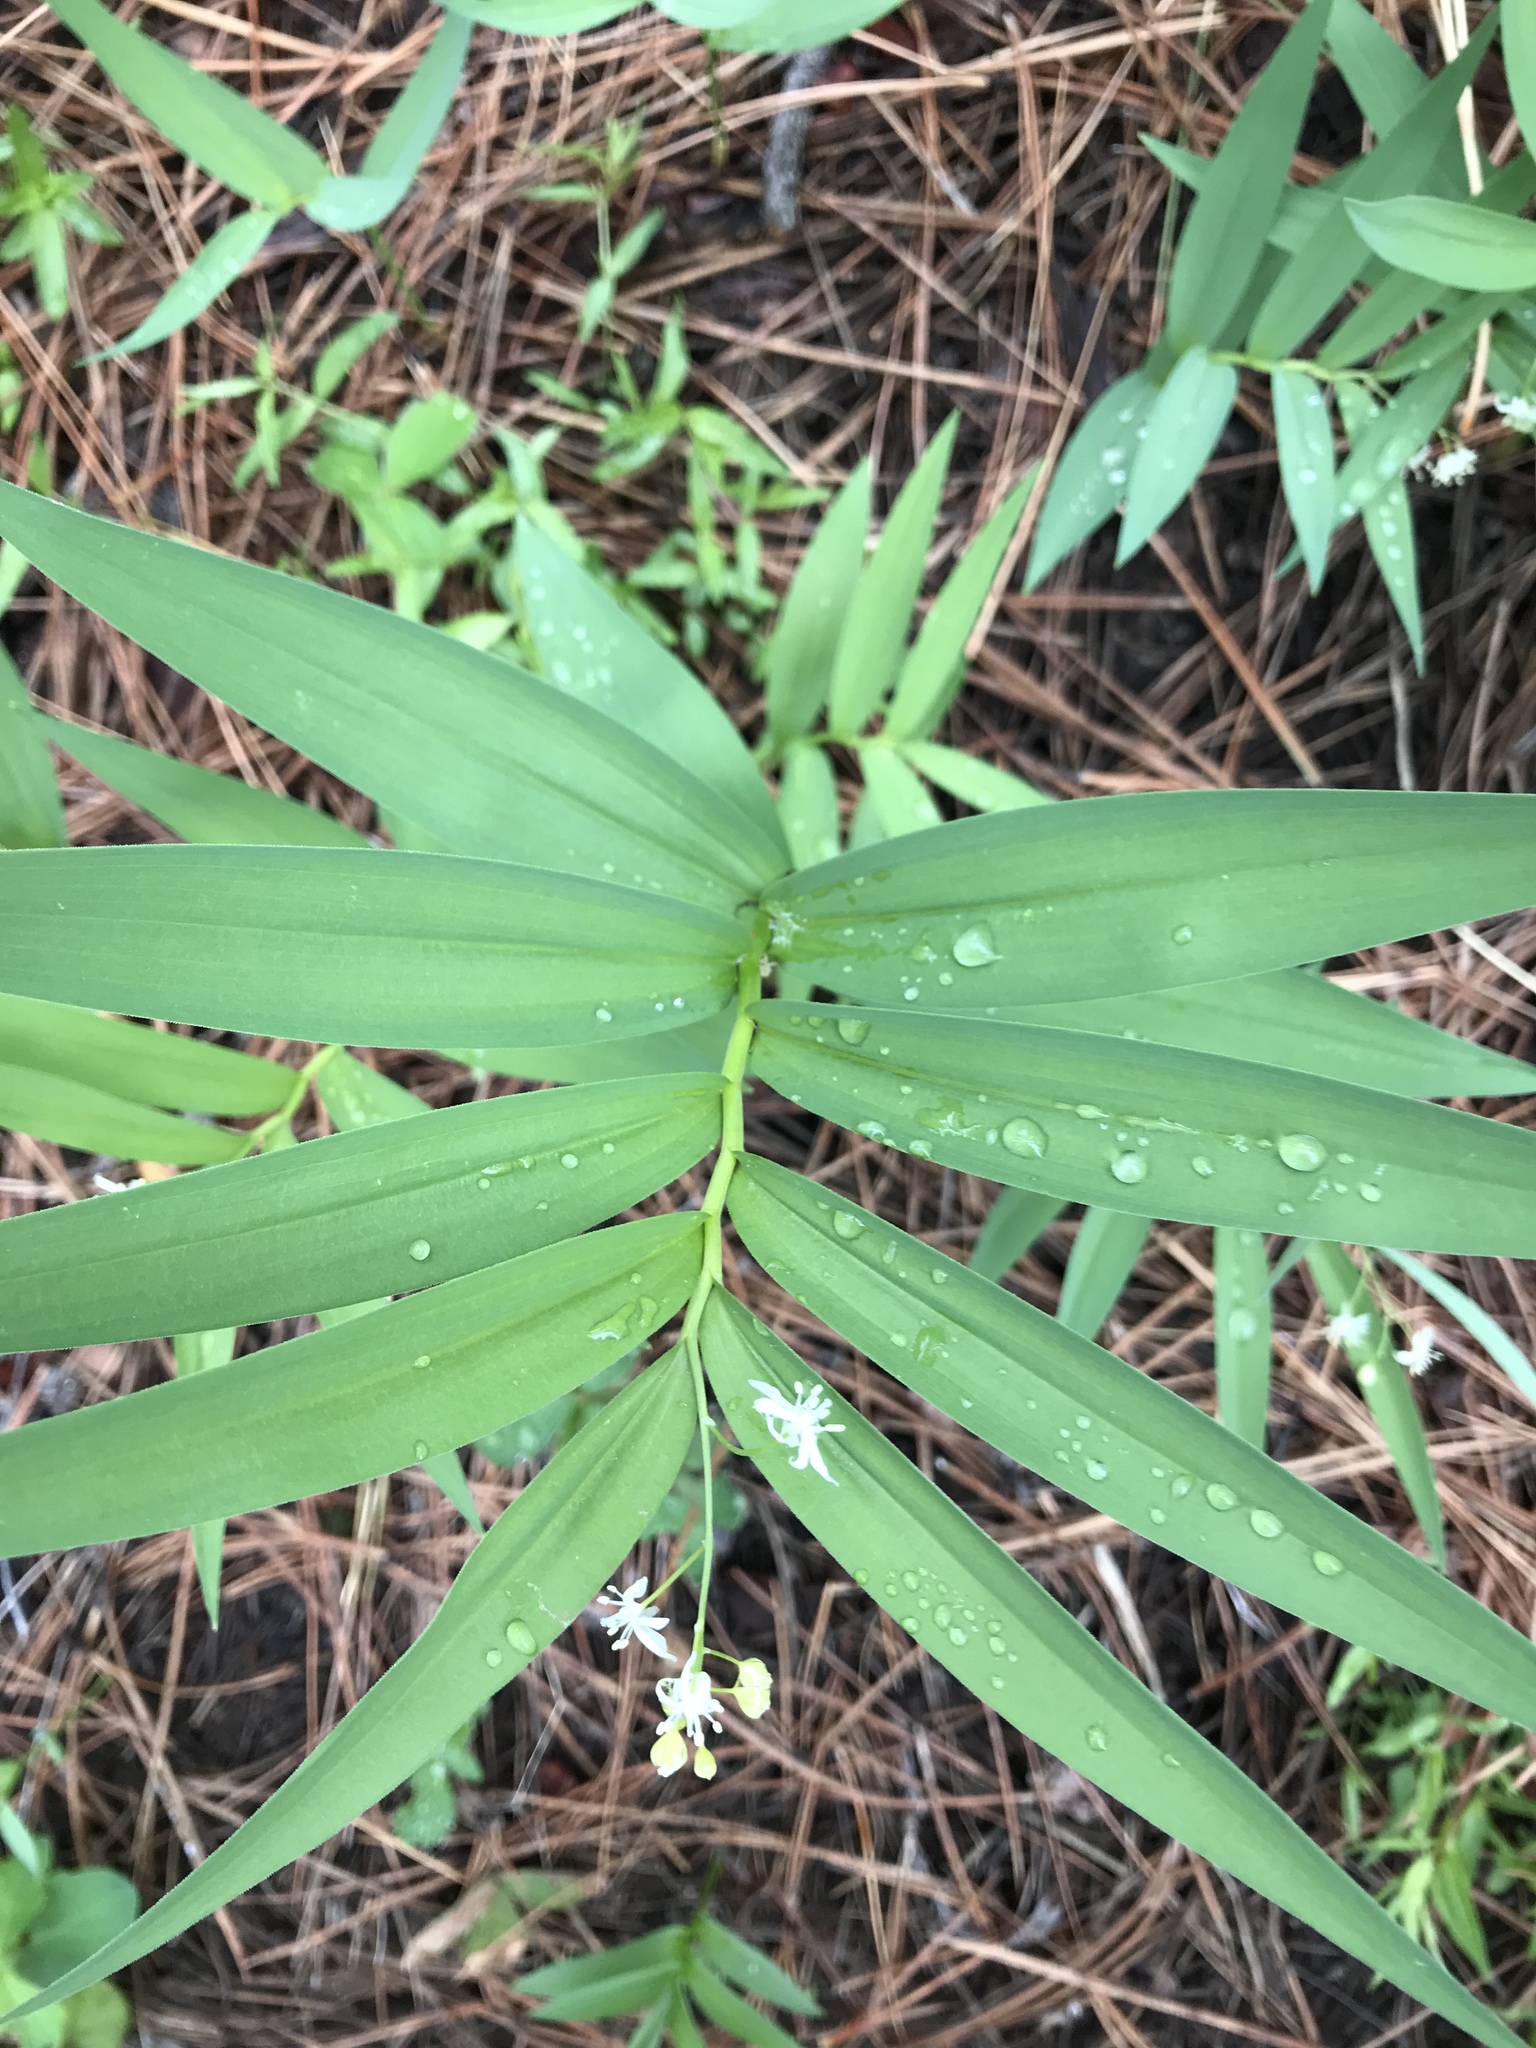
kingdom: Plantae
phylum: Tracheophyta
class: Liliopsida
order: Asparagales
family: Asparagaceae
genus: Maianthemum
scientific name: Maianthemum stellatum
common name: Little false solomon's seal
